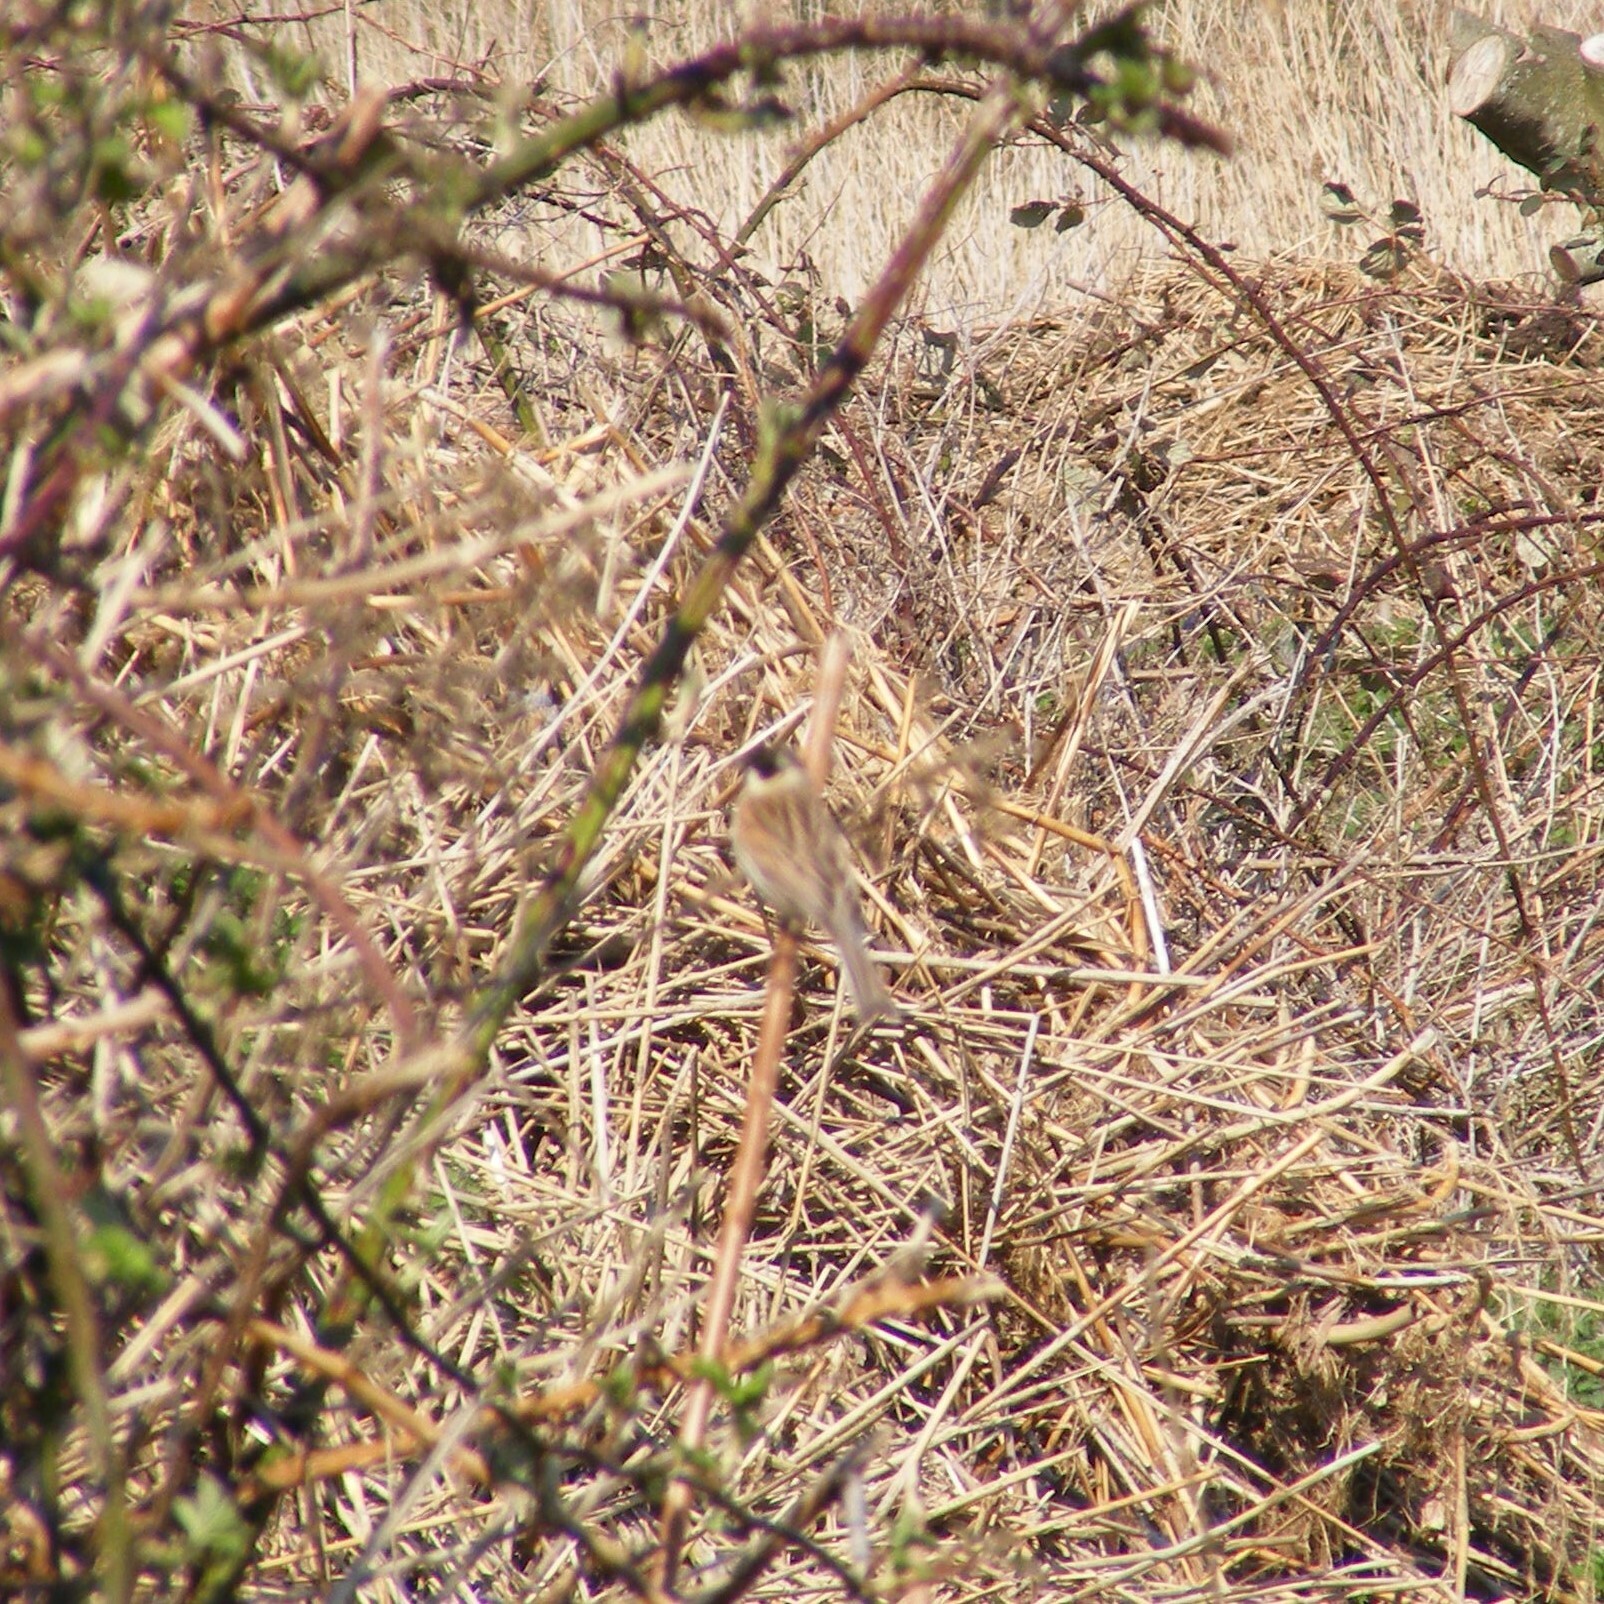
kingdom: Animalia
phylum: Chordata
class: Aves
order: Passeriformes
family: Emberizidae
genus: Emberiza
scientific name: Emberiza schoeniclus
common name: Reed bunting
